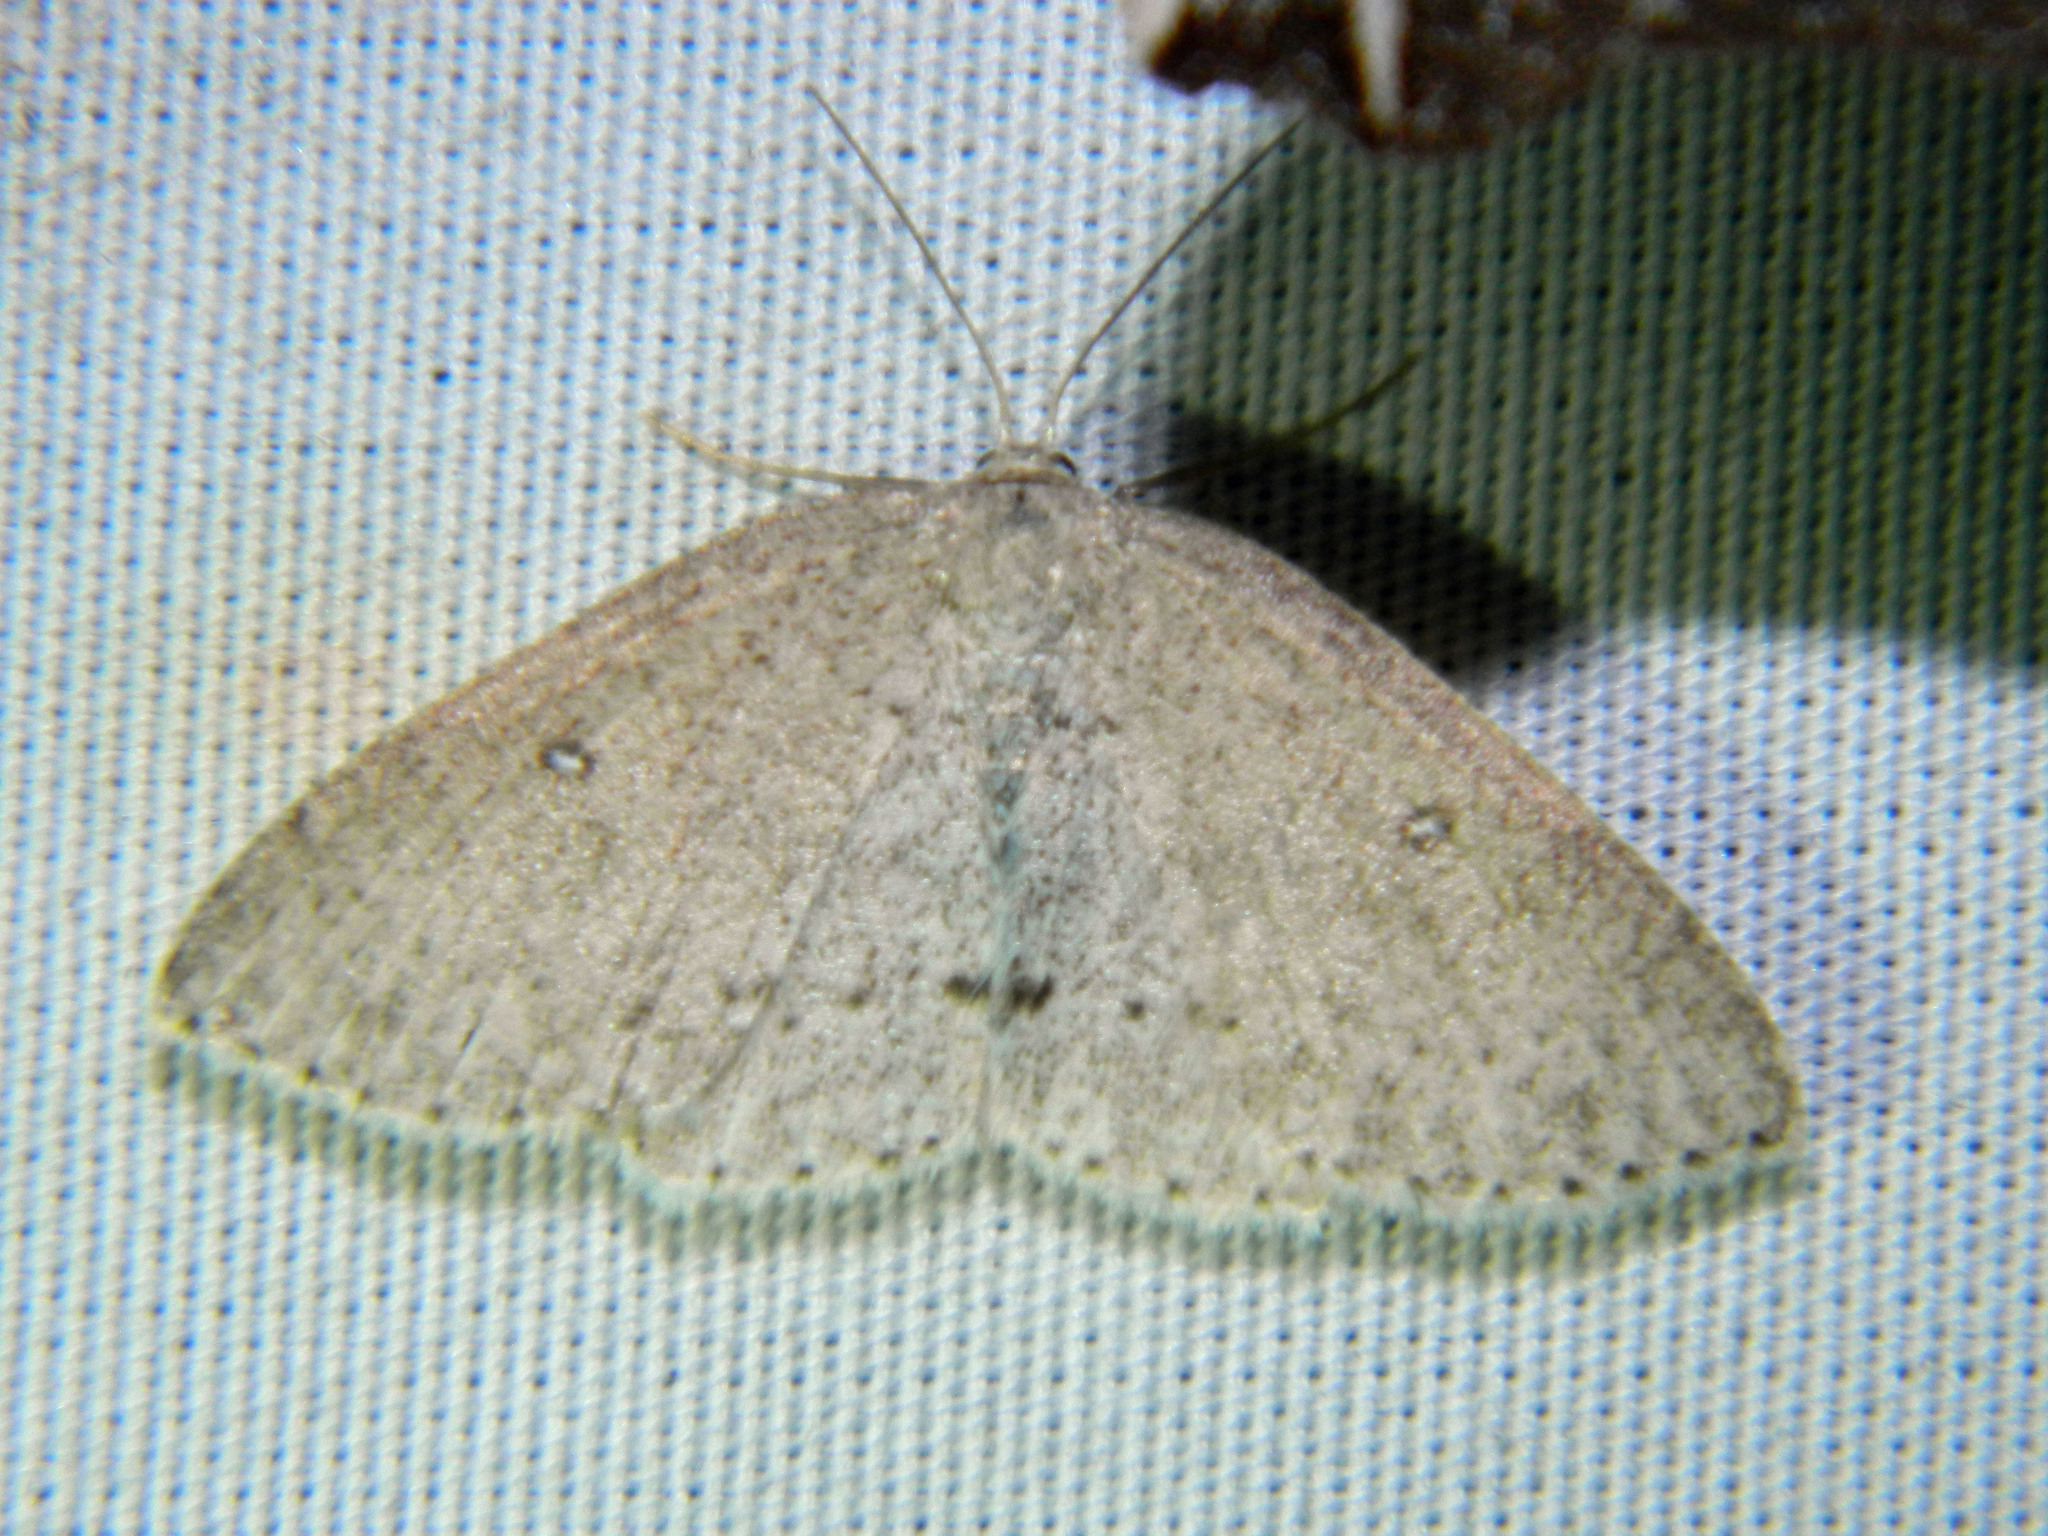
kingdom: Animalia
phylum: Arthropoda
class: Insecta
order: Lepidoptera
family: Geometridae
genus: Cyclophora
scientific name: Cyclophora pendulinaria
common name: Sweet fern geometer
